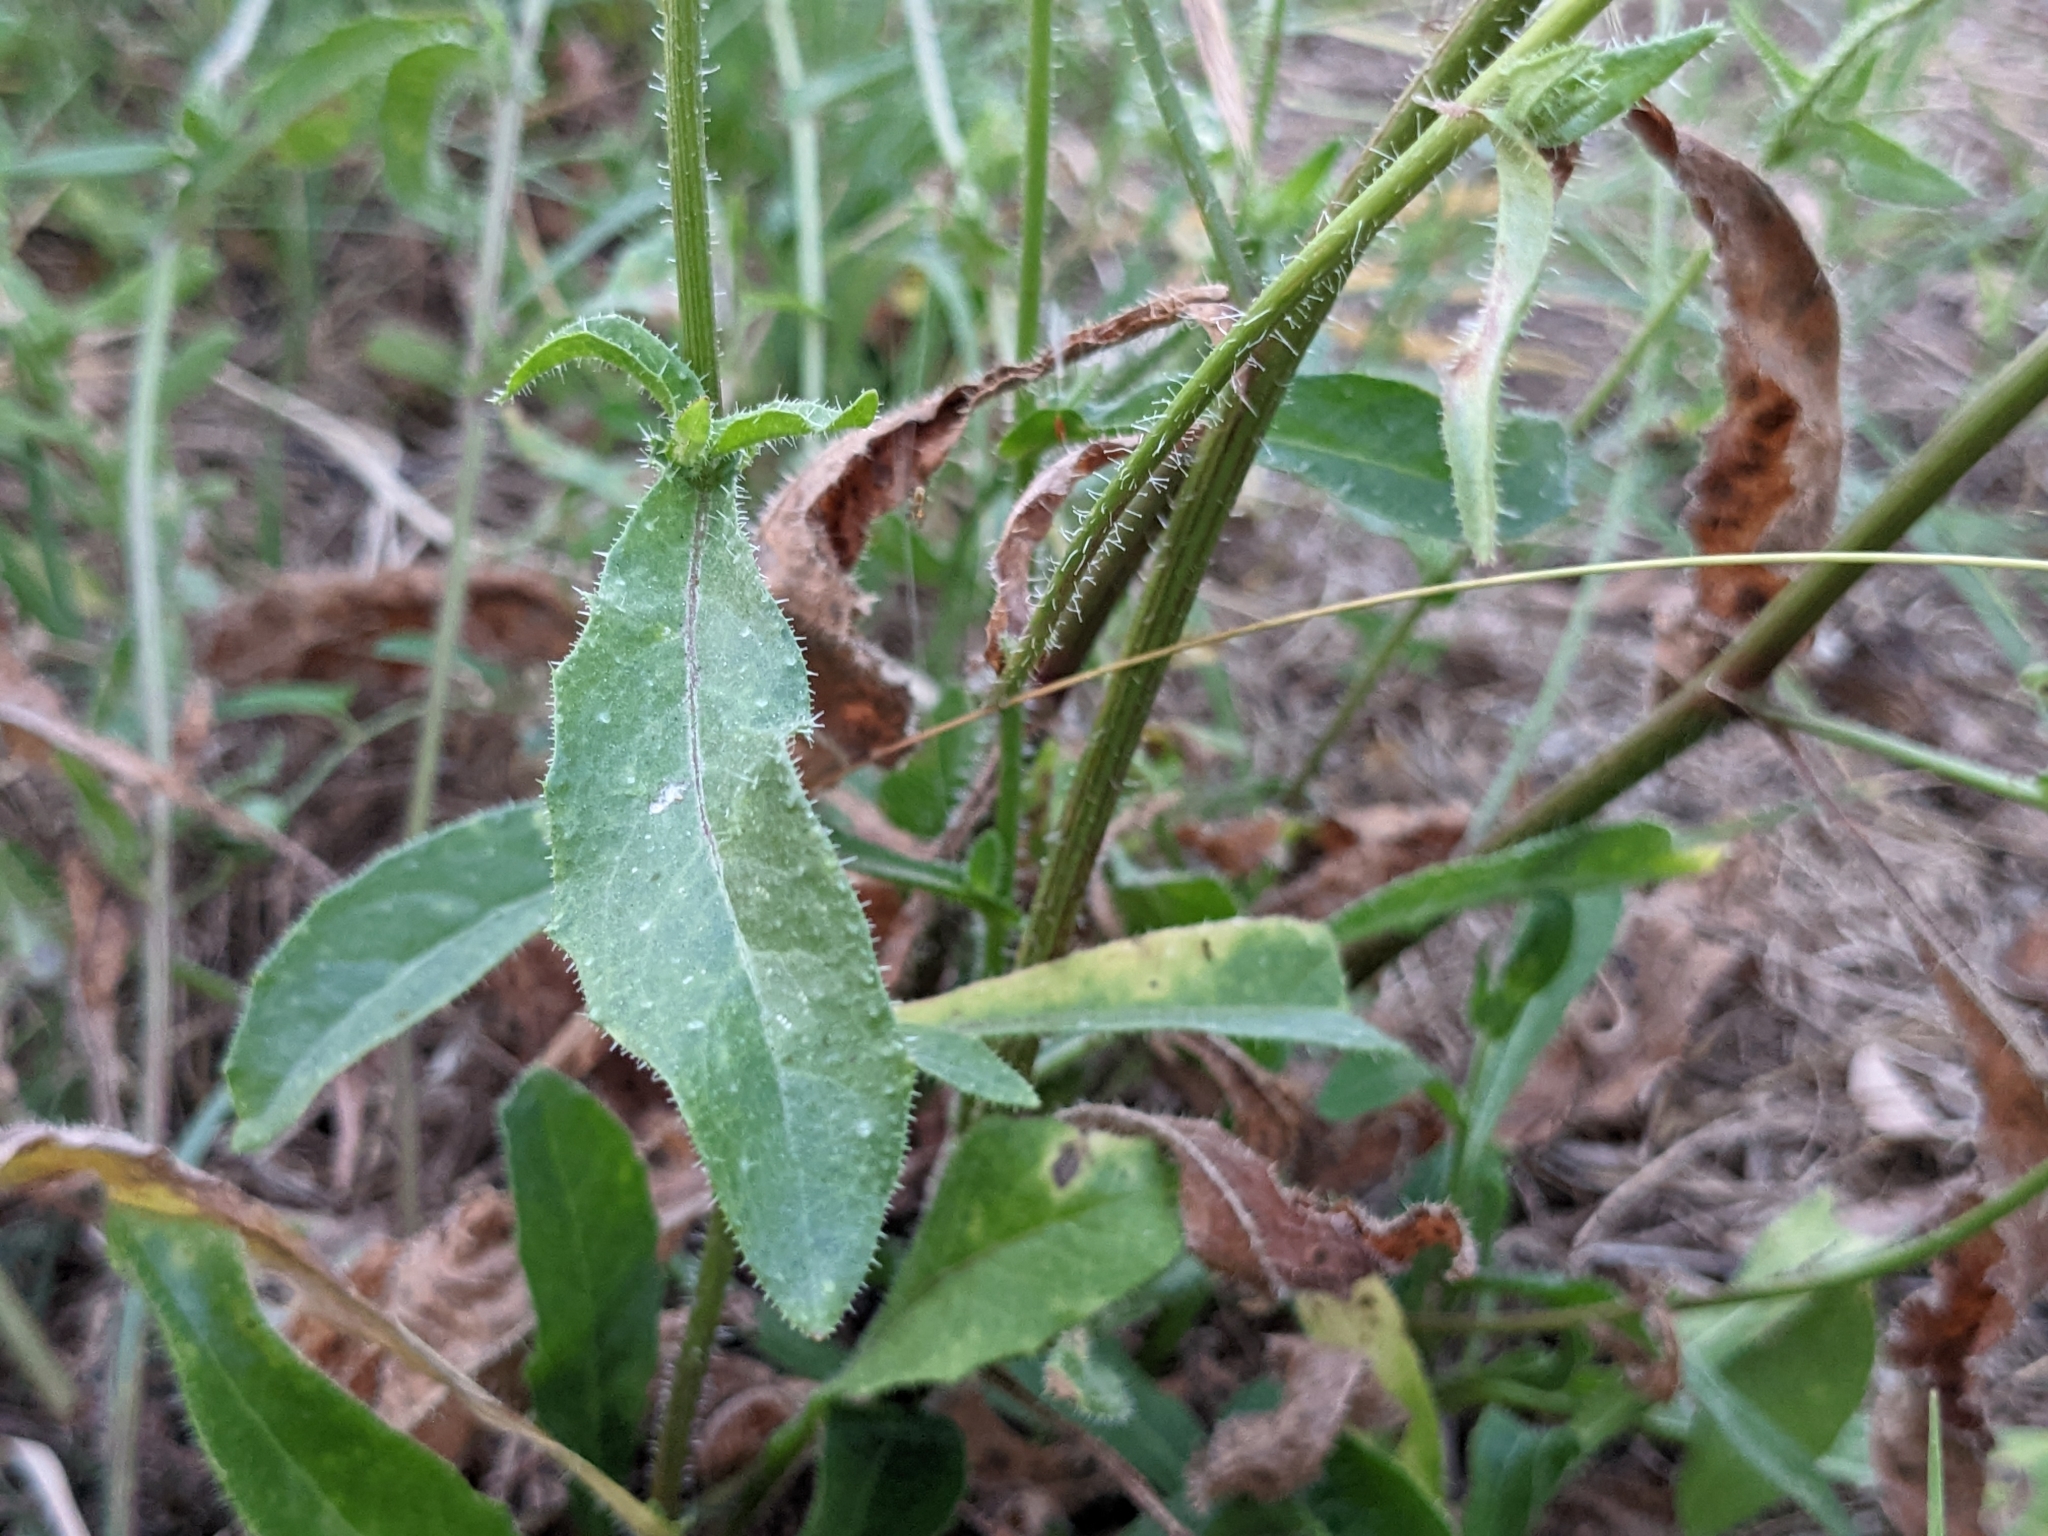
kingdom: Plantae
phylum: Tracheophyta
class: Magnoliopsida
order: Asterales
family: Asteraceae
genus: Helminthotheca
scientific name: Helminthotheca echioides
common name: Ox-tongue
